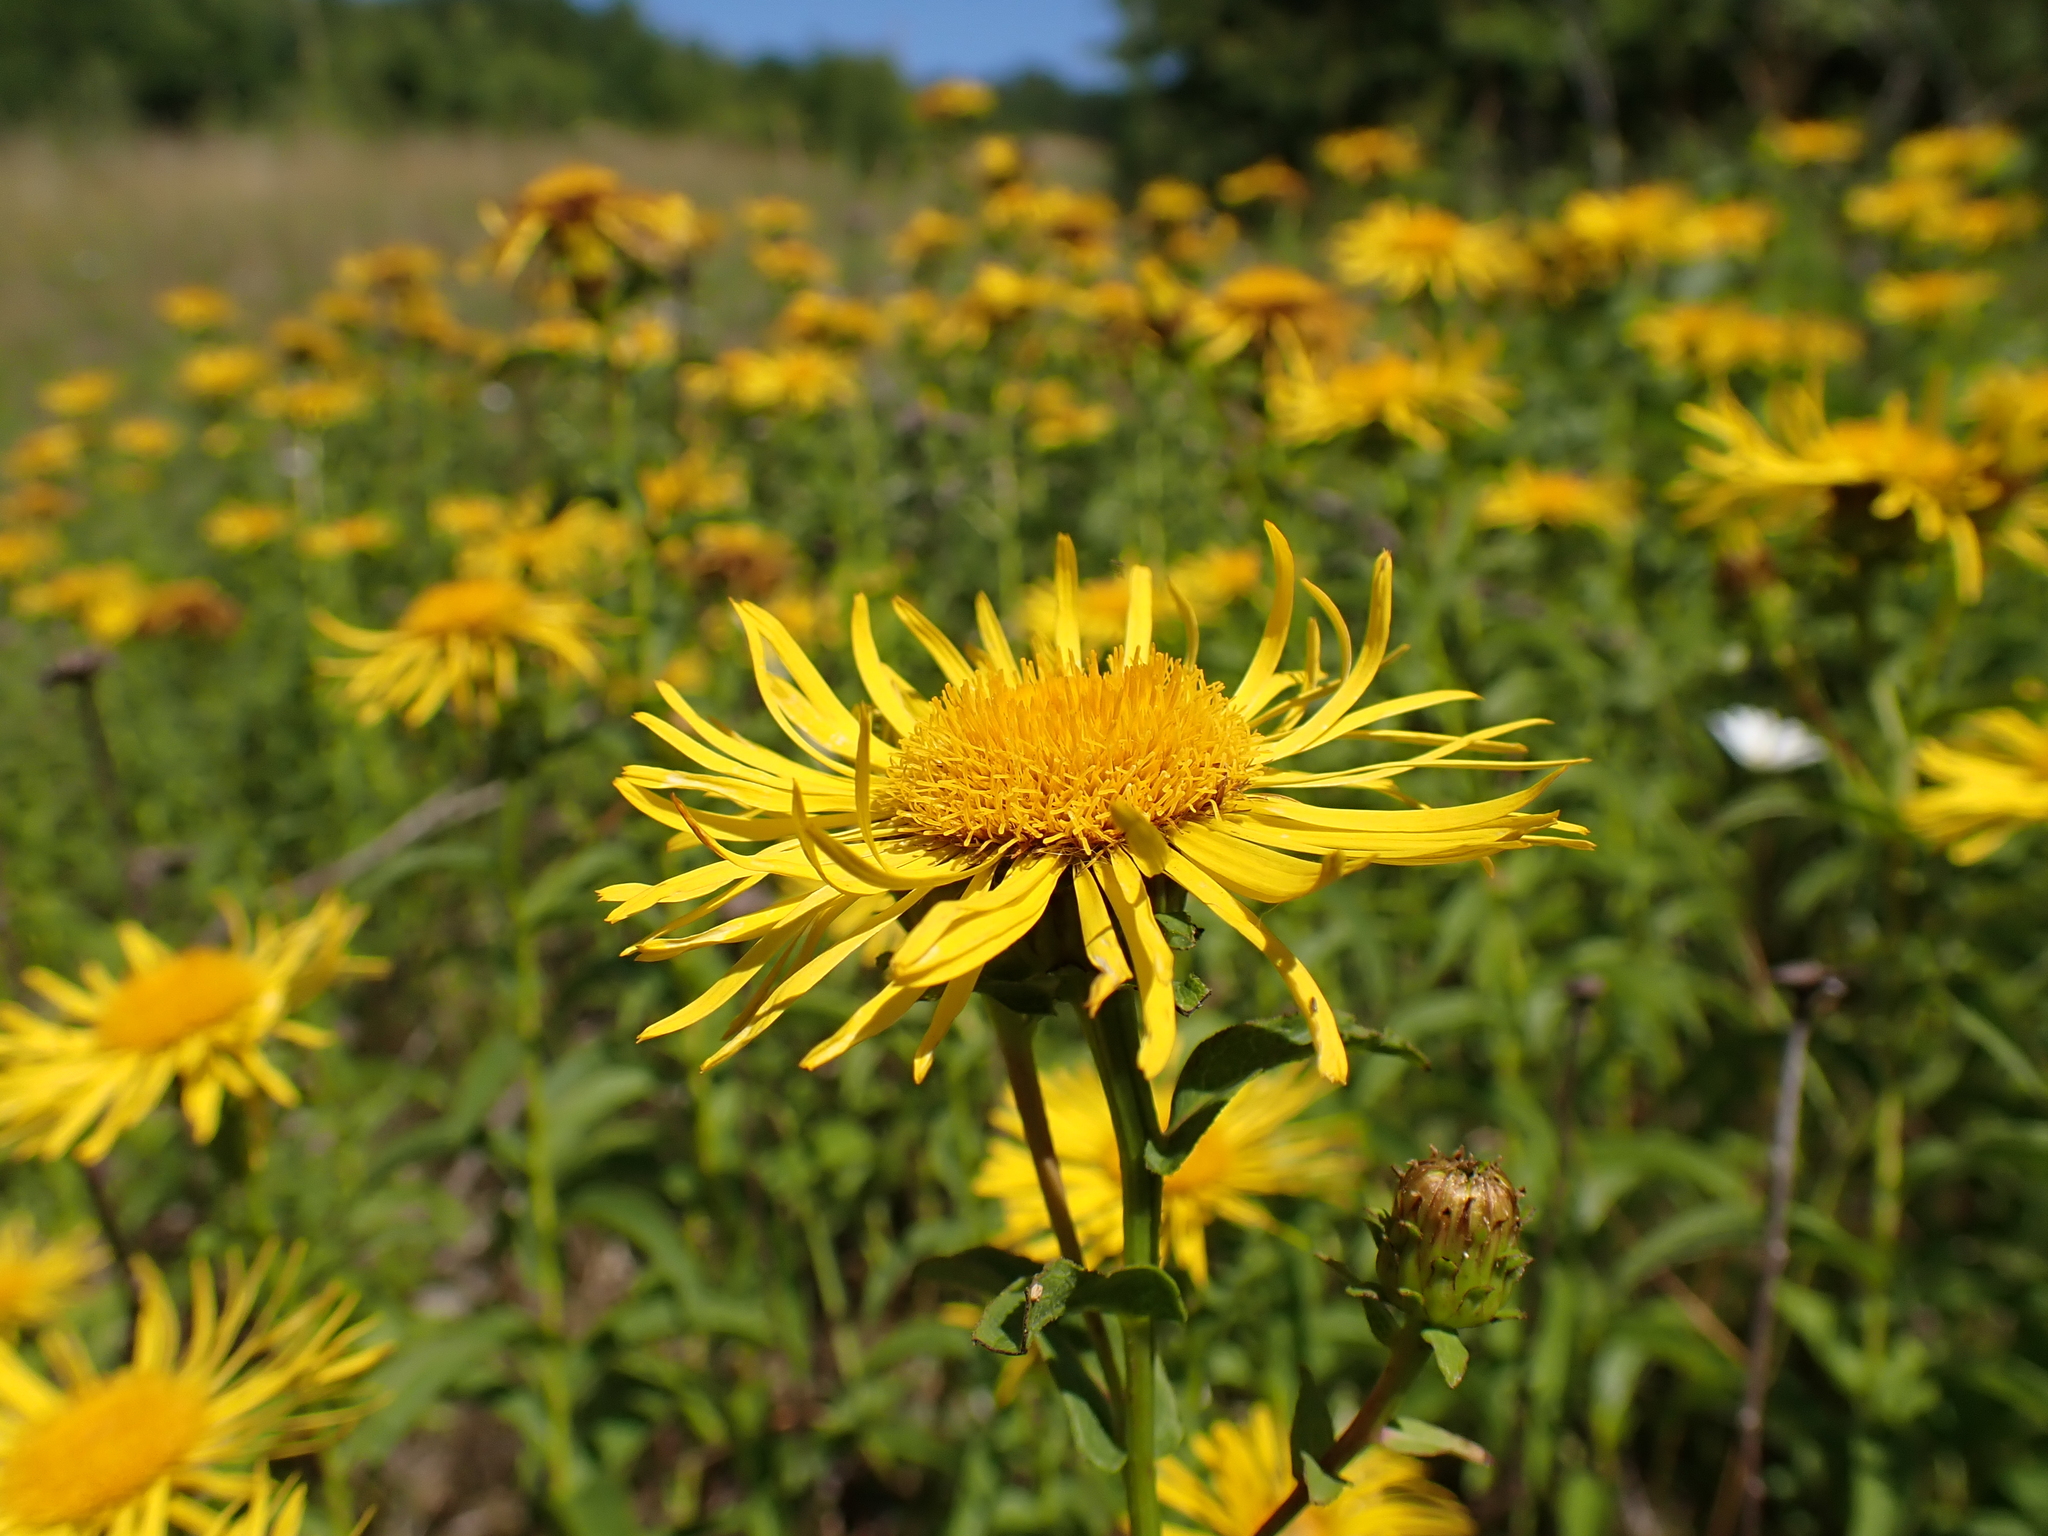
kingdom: Plantae
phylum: Tracheophyta
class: Magnoliopsida
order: Asterales
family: Asteraceae
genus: Pentanema
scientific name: Pentanema salicinum
